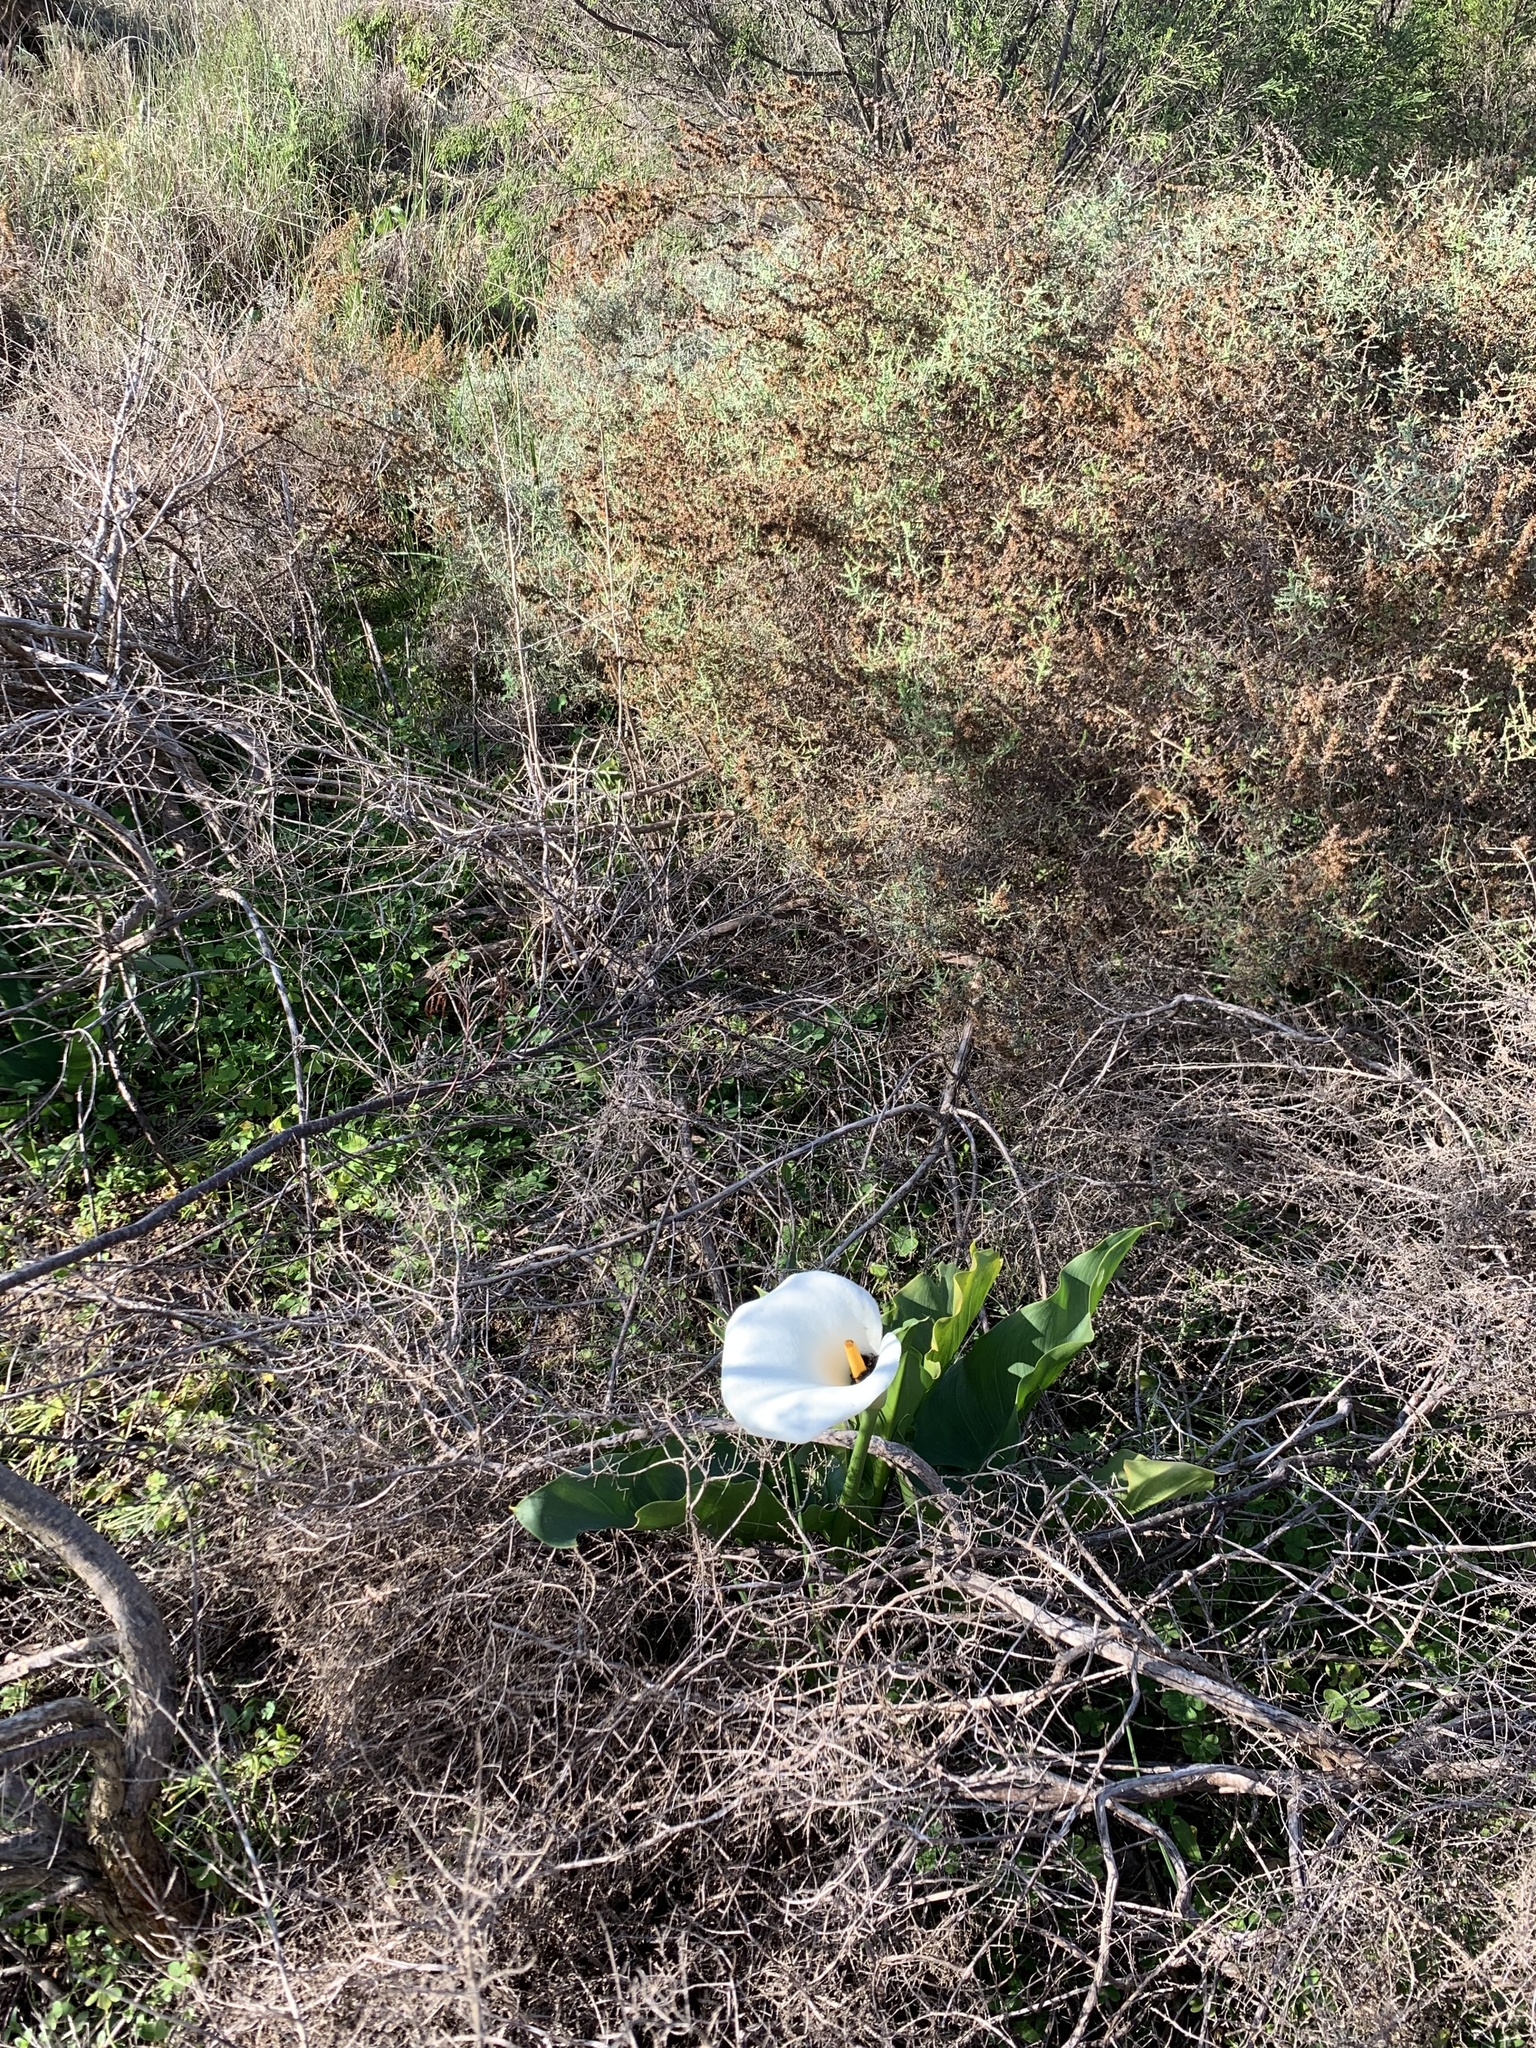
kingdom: Plantae
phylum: Tracheophyta
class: Liliopsida
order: Alismatales
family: Araceae
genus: Zantedeschia
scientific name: Zantedeschia aethiopica
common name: Altar-lily
